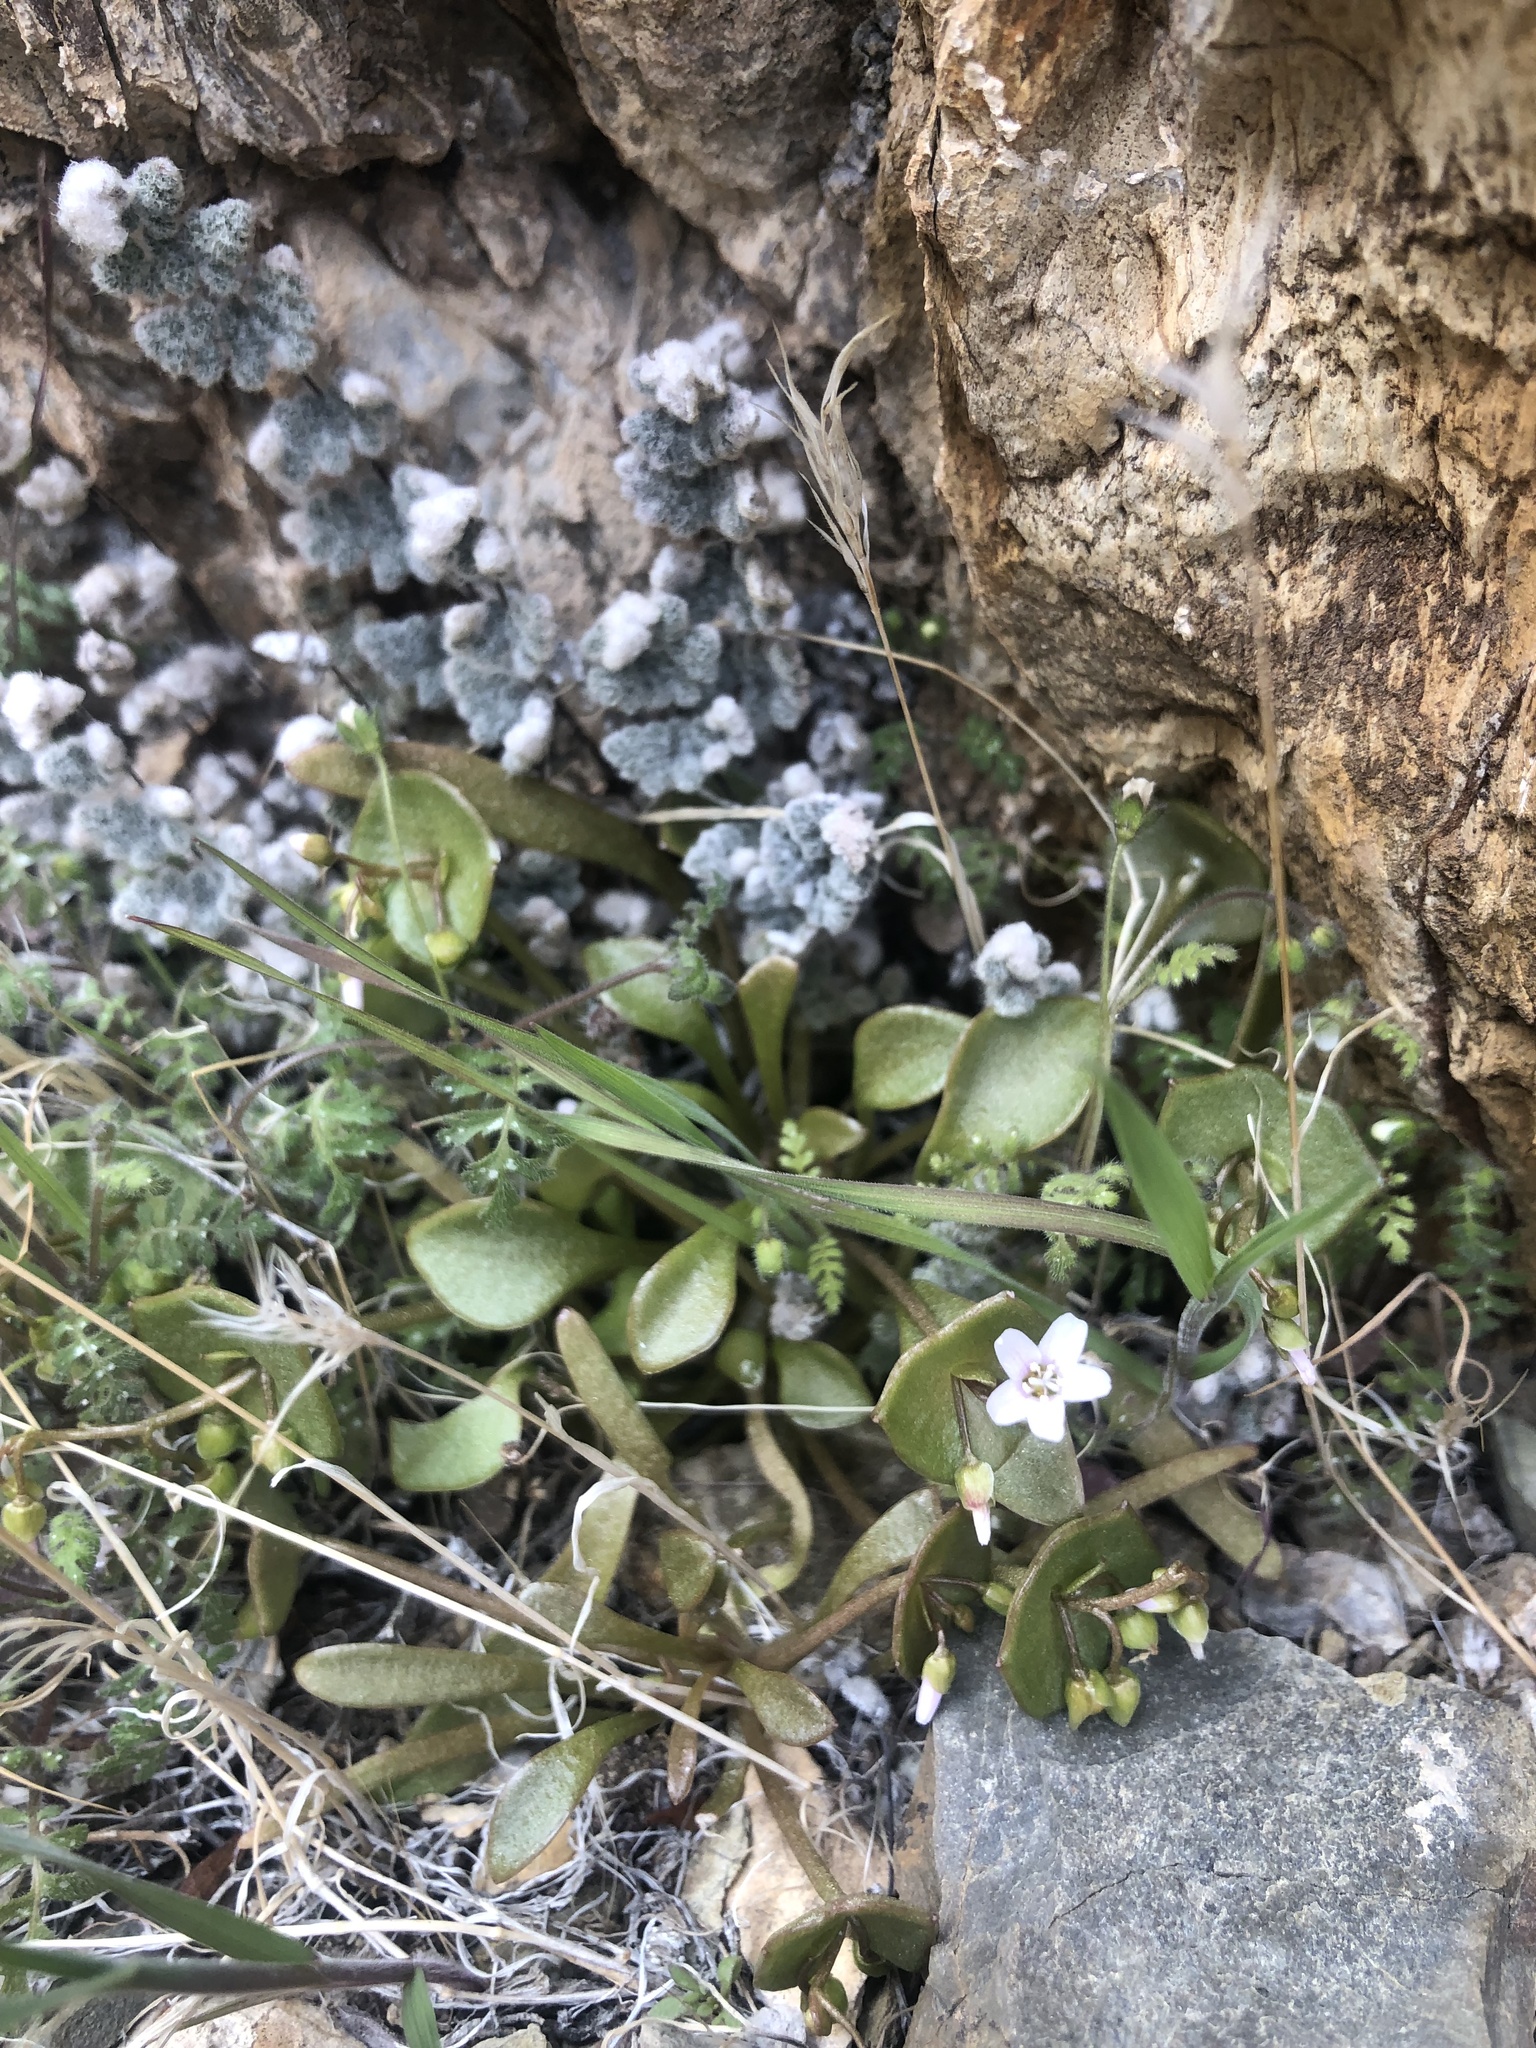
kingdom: Plantae
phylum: Tracheophyta
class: Magnoliopsida
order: Caryophyllales
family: Montiaceae
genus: Claytonia
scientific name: Claytonia perfoliata
